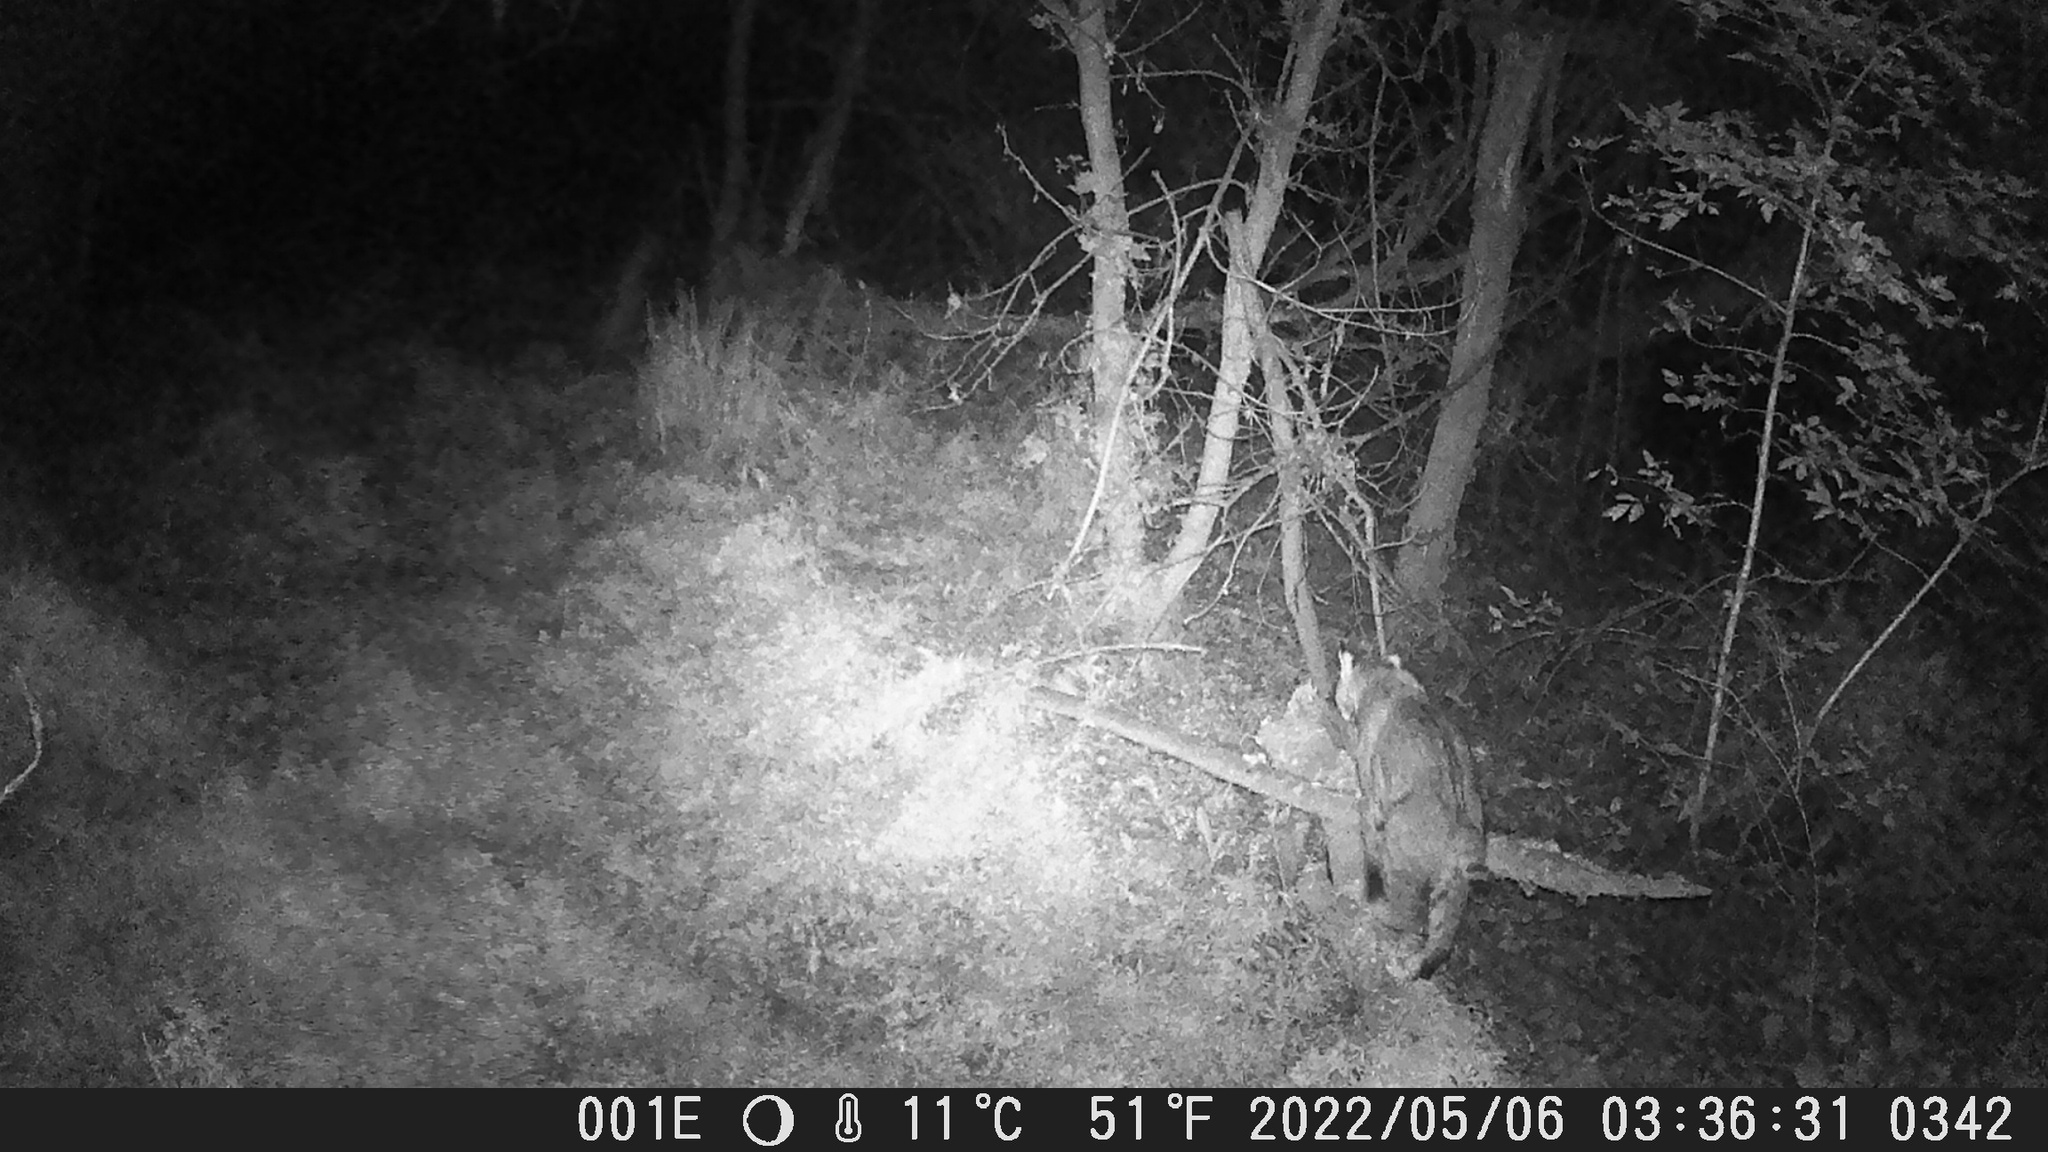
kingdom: Animalia
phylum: Chordata
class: Mammalia
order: Carnivora
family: Felidae
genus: Lynx
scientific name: Lynx rufus
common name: Bobcat
